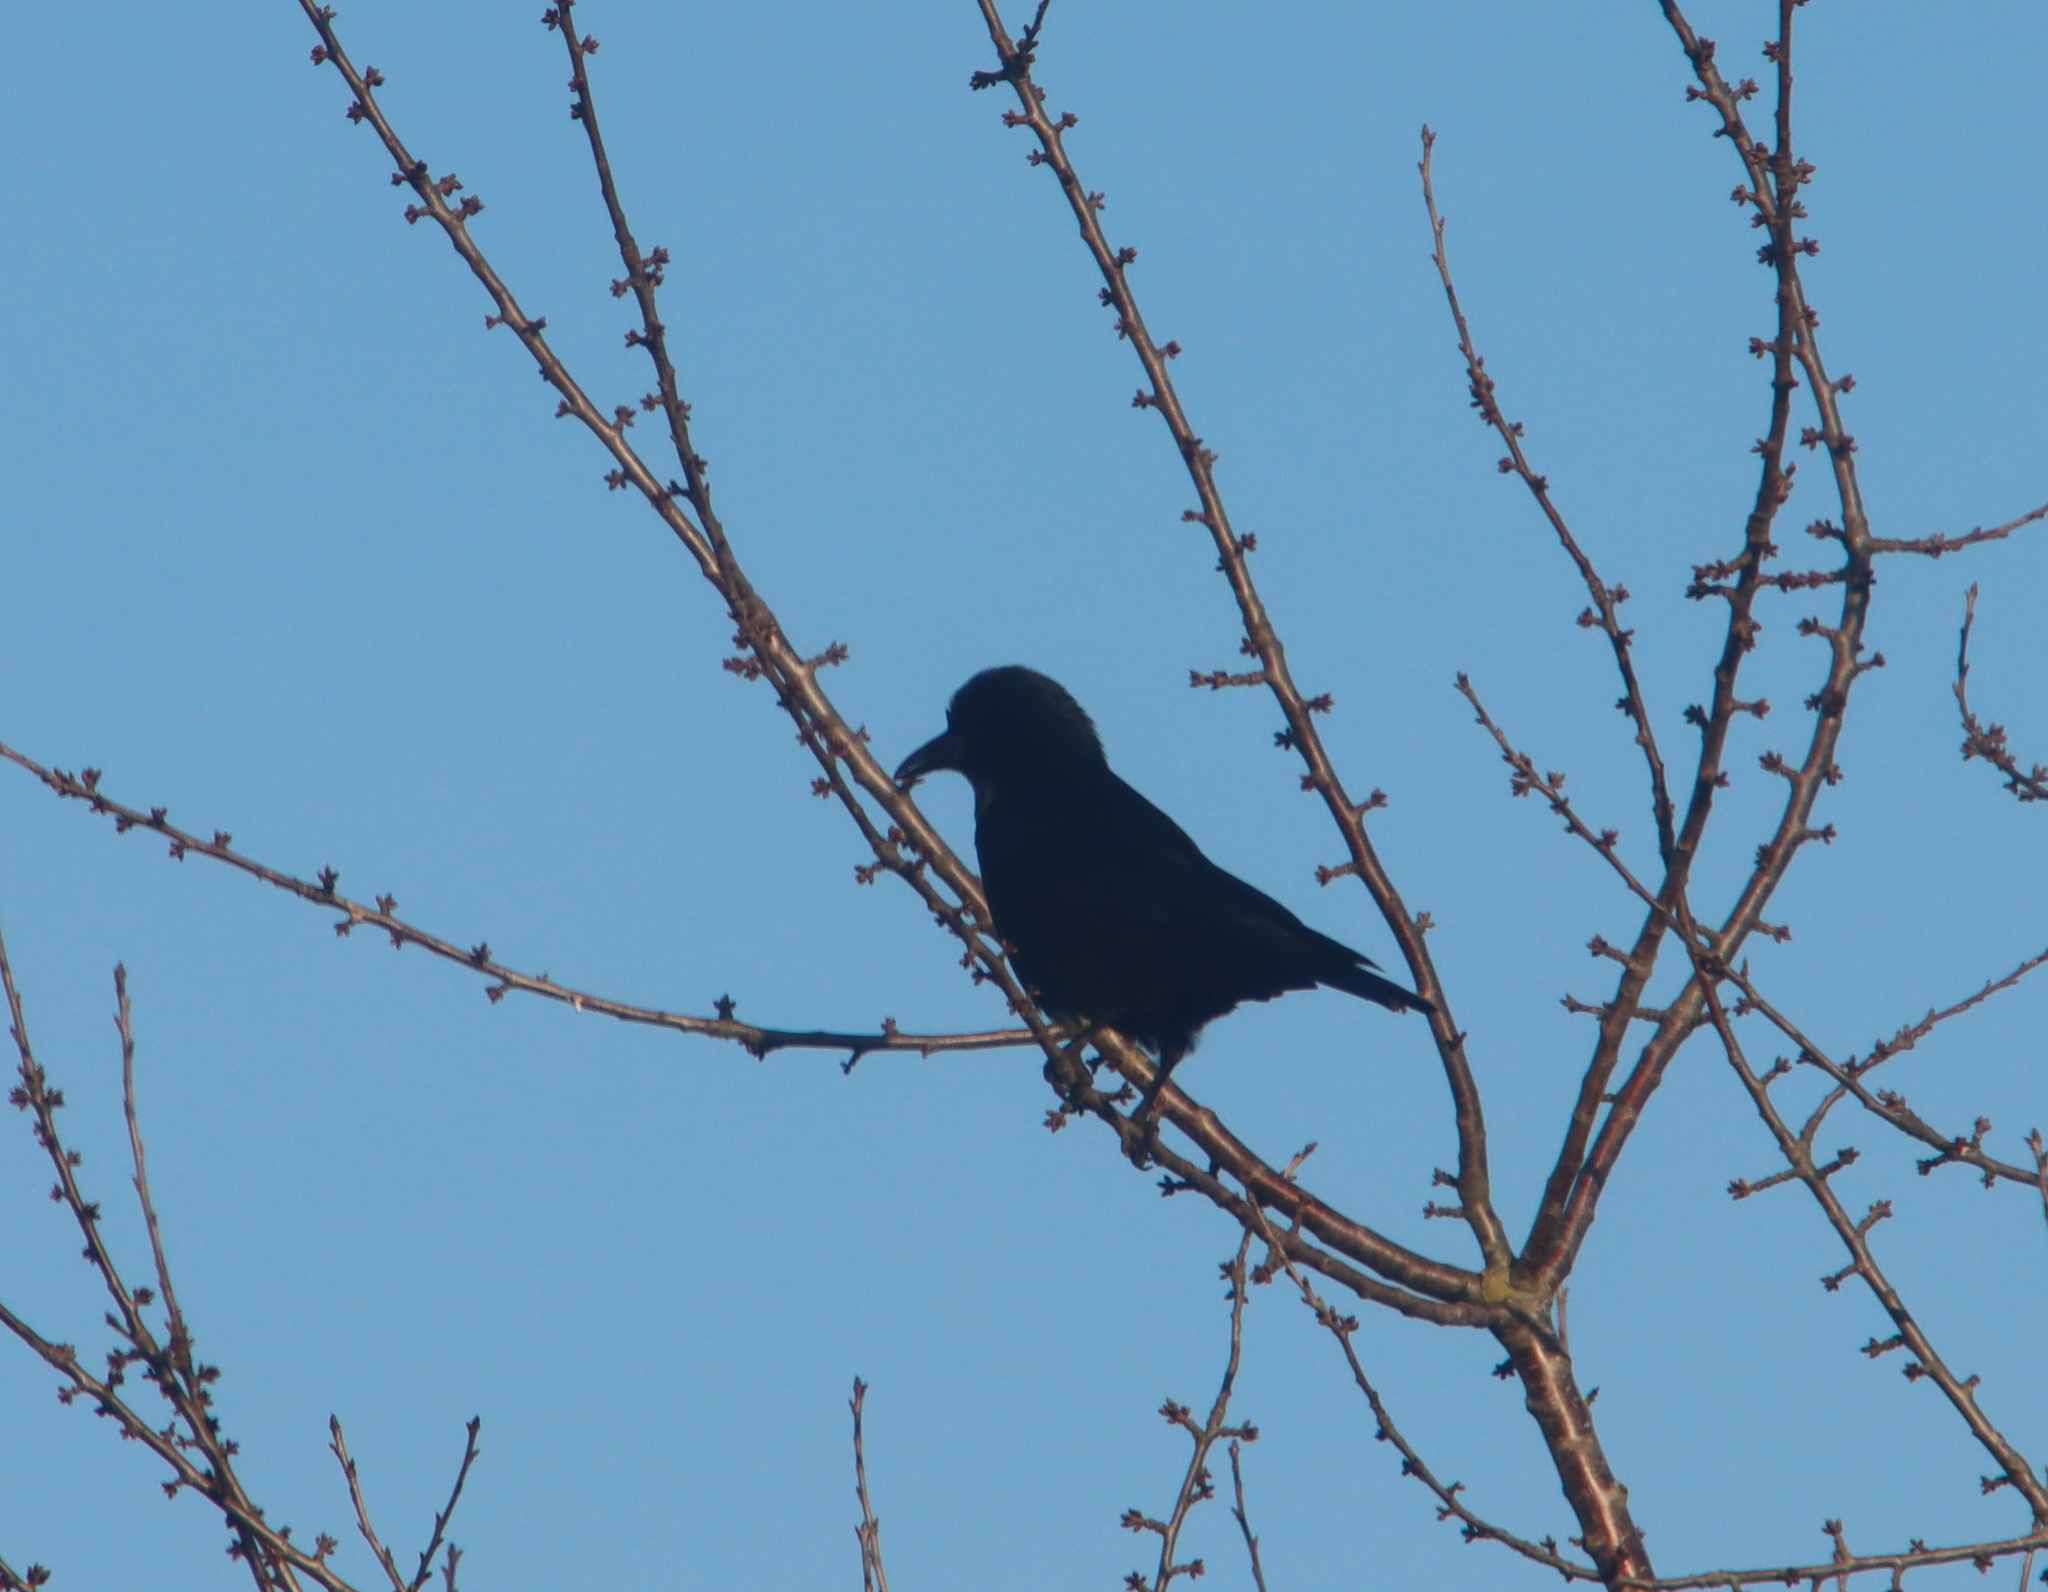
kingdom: Animalia
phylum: Chordata
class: Aves
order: Passeriformes
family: Corvidae
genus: Corvus
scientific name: Corvus corone
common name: Carrion crow
